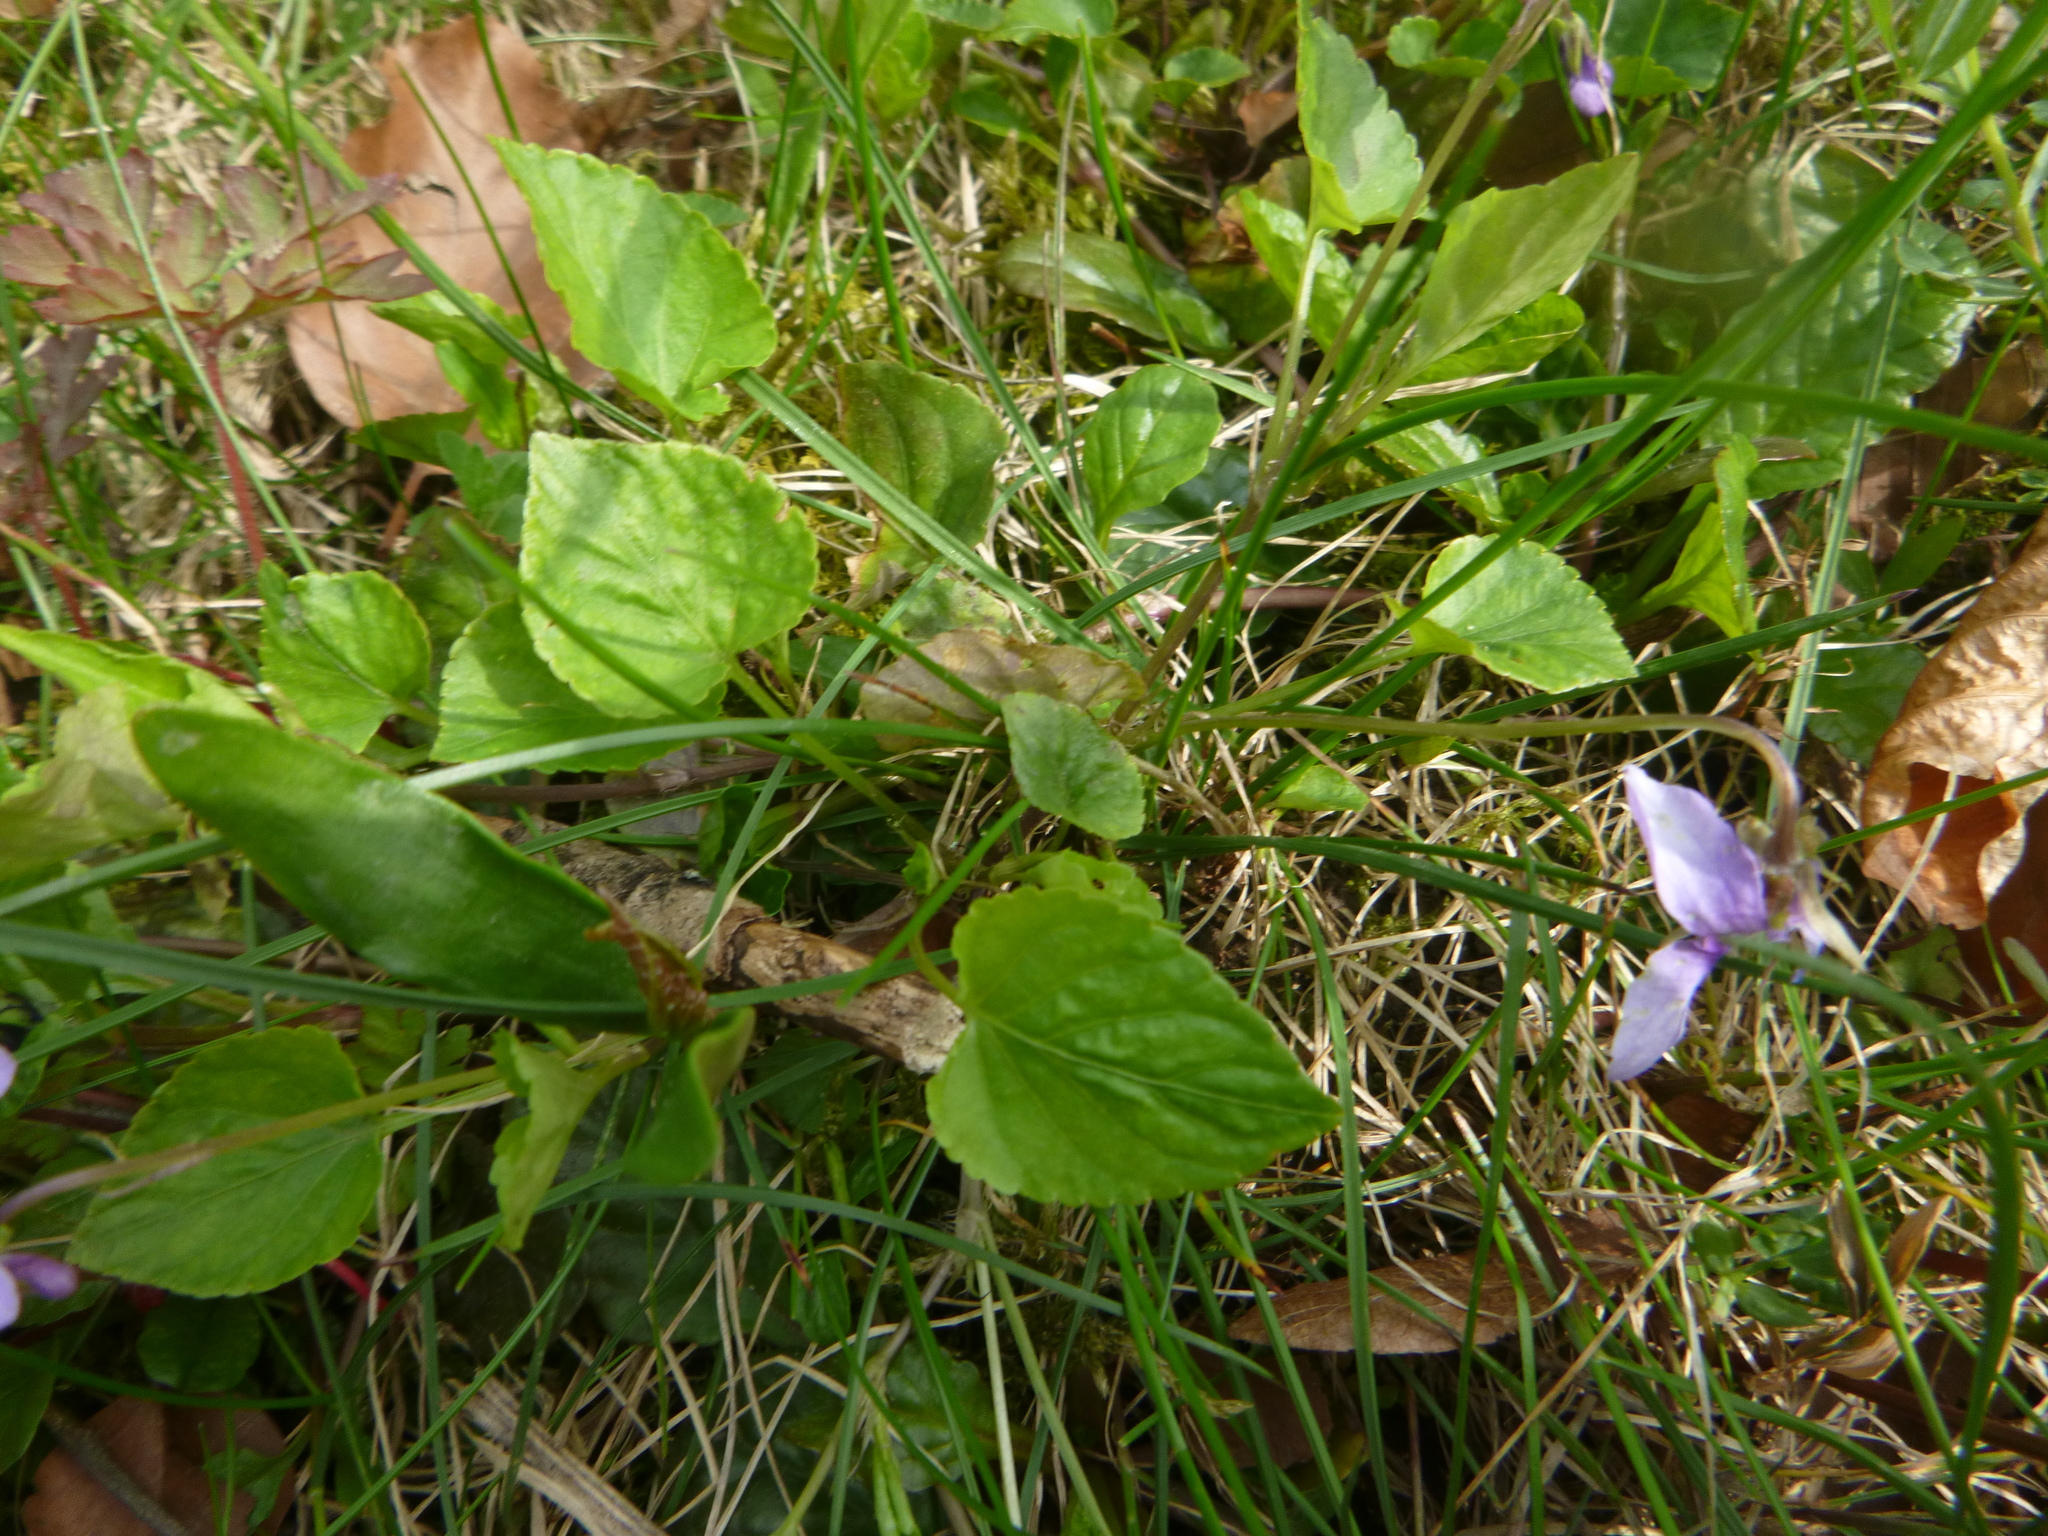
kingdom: Plantae
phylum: Tracheophyta
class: Magnoliopsida
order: Malpighiales
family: Violaceae
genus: Viola
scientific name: Viola reichenbachiana
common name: Early dog-violet
